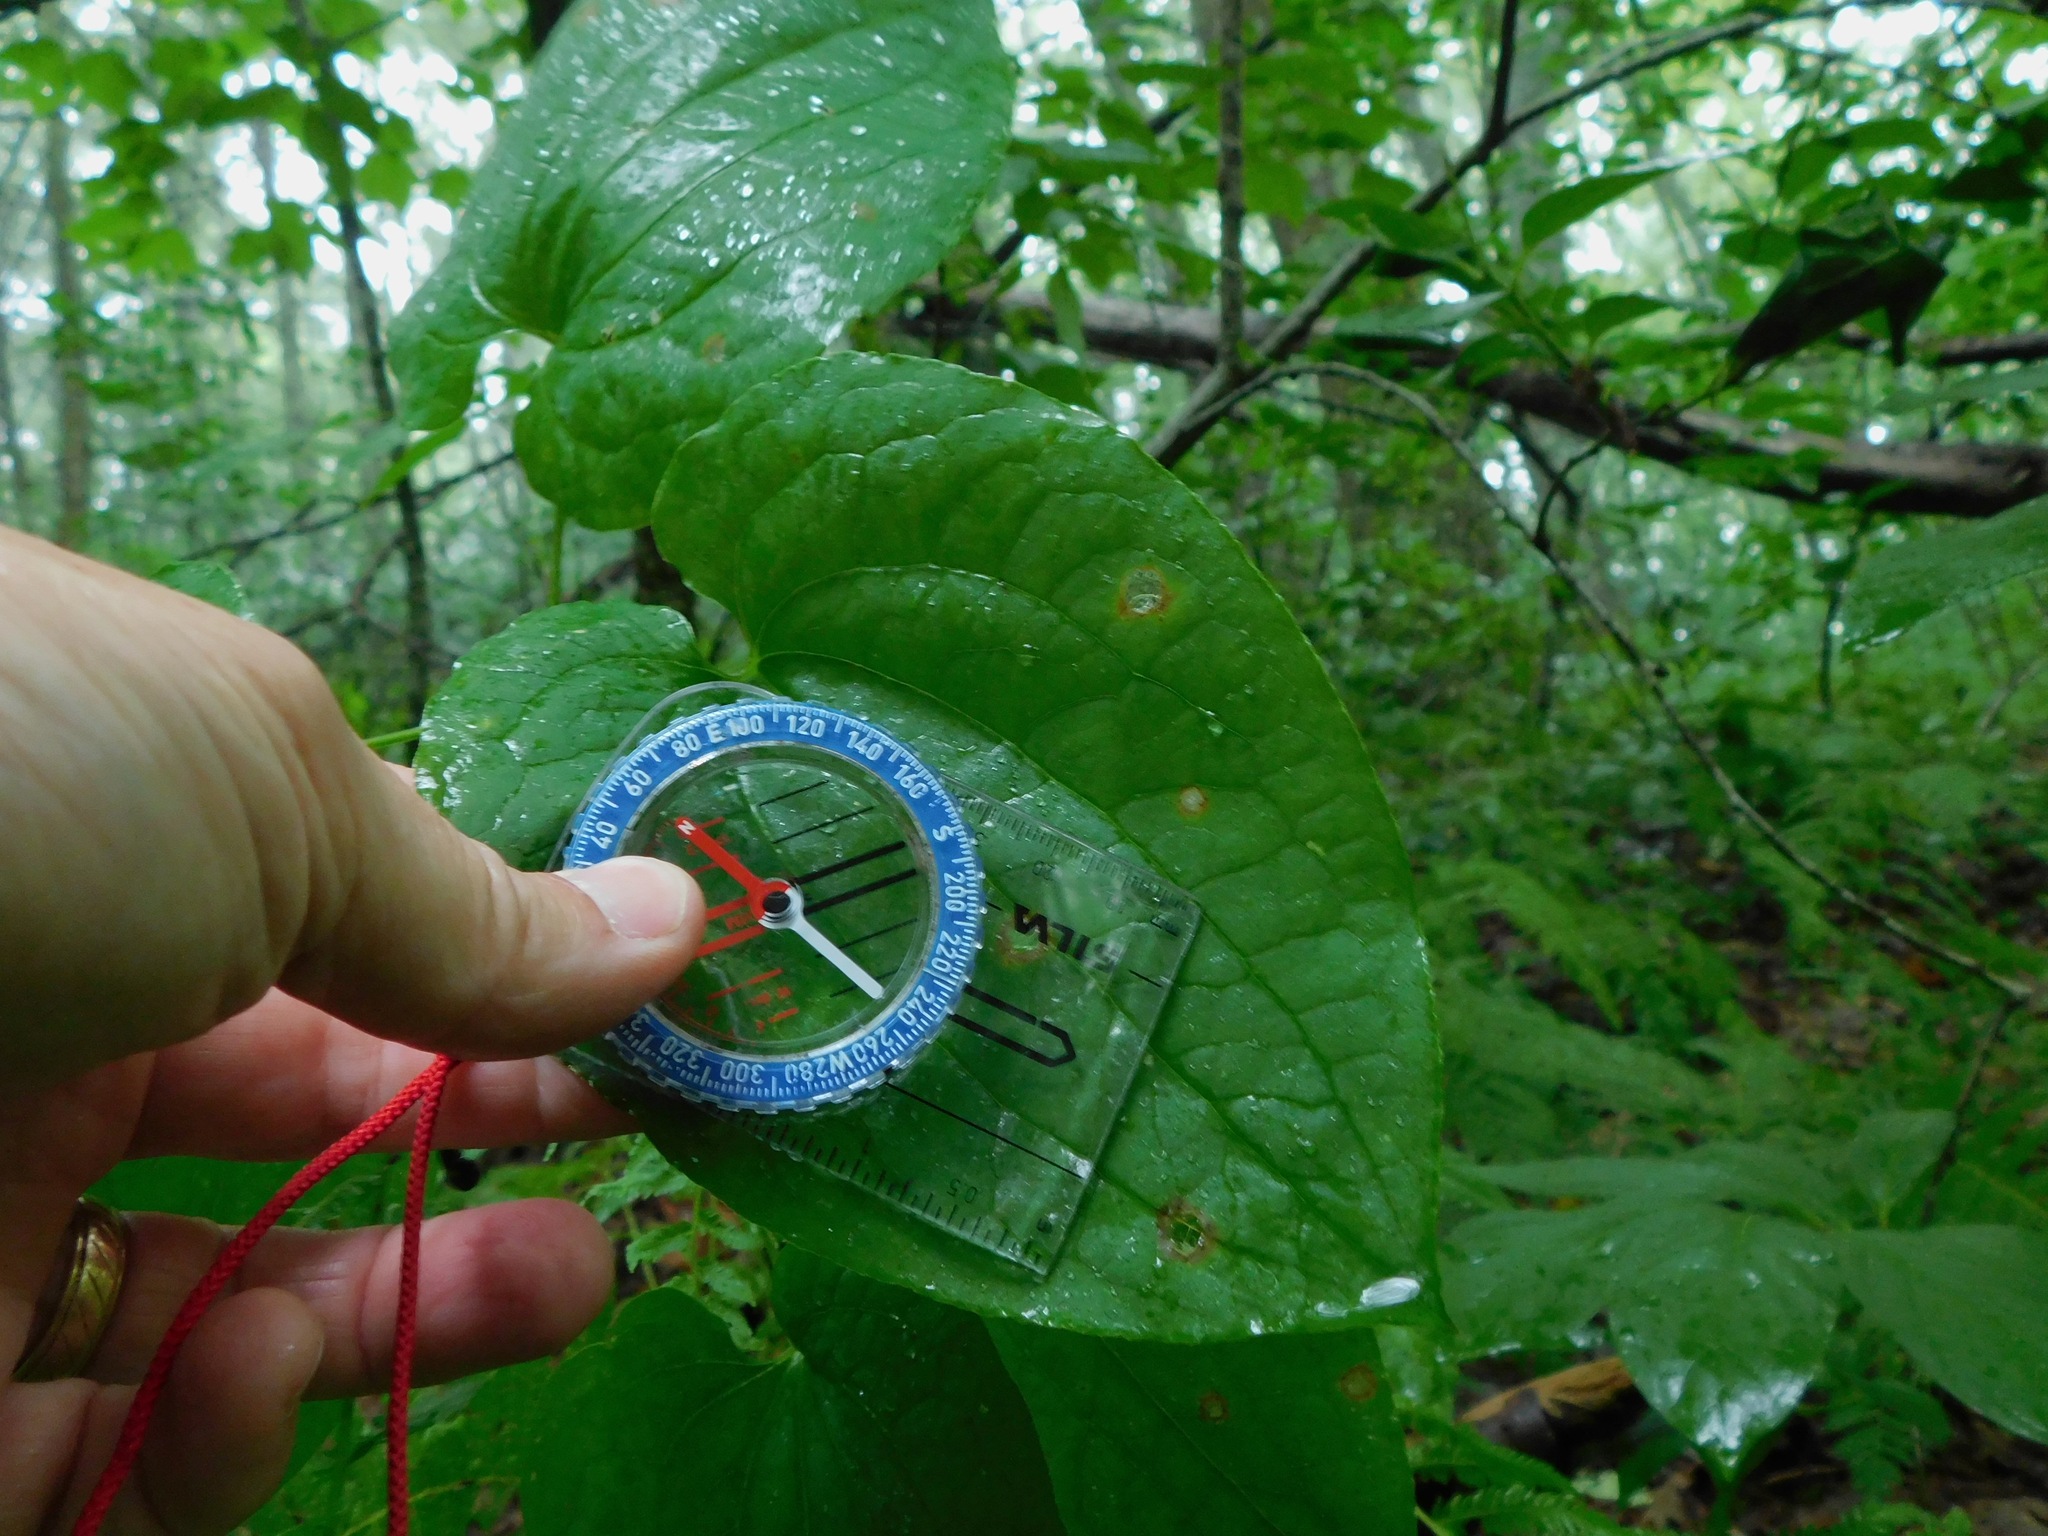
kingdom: Plantae
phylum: Tracheophyta
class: Liliopsida
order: Liliales
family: Smilacaceae
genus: Smilax
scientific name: Smilax biltmoreana
